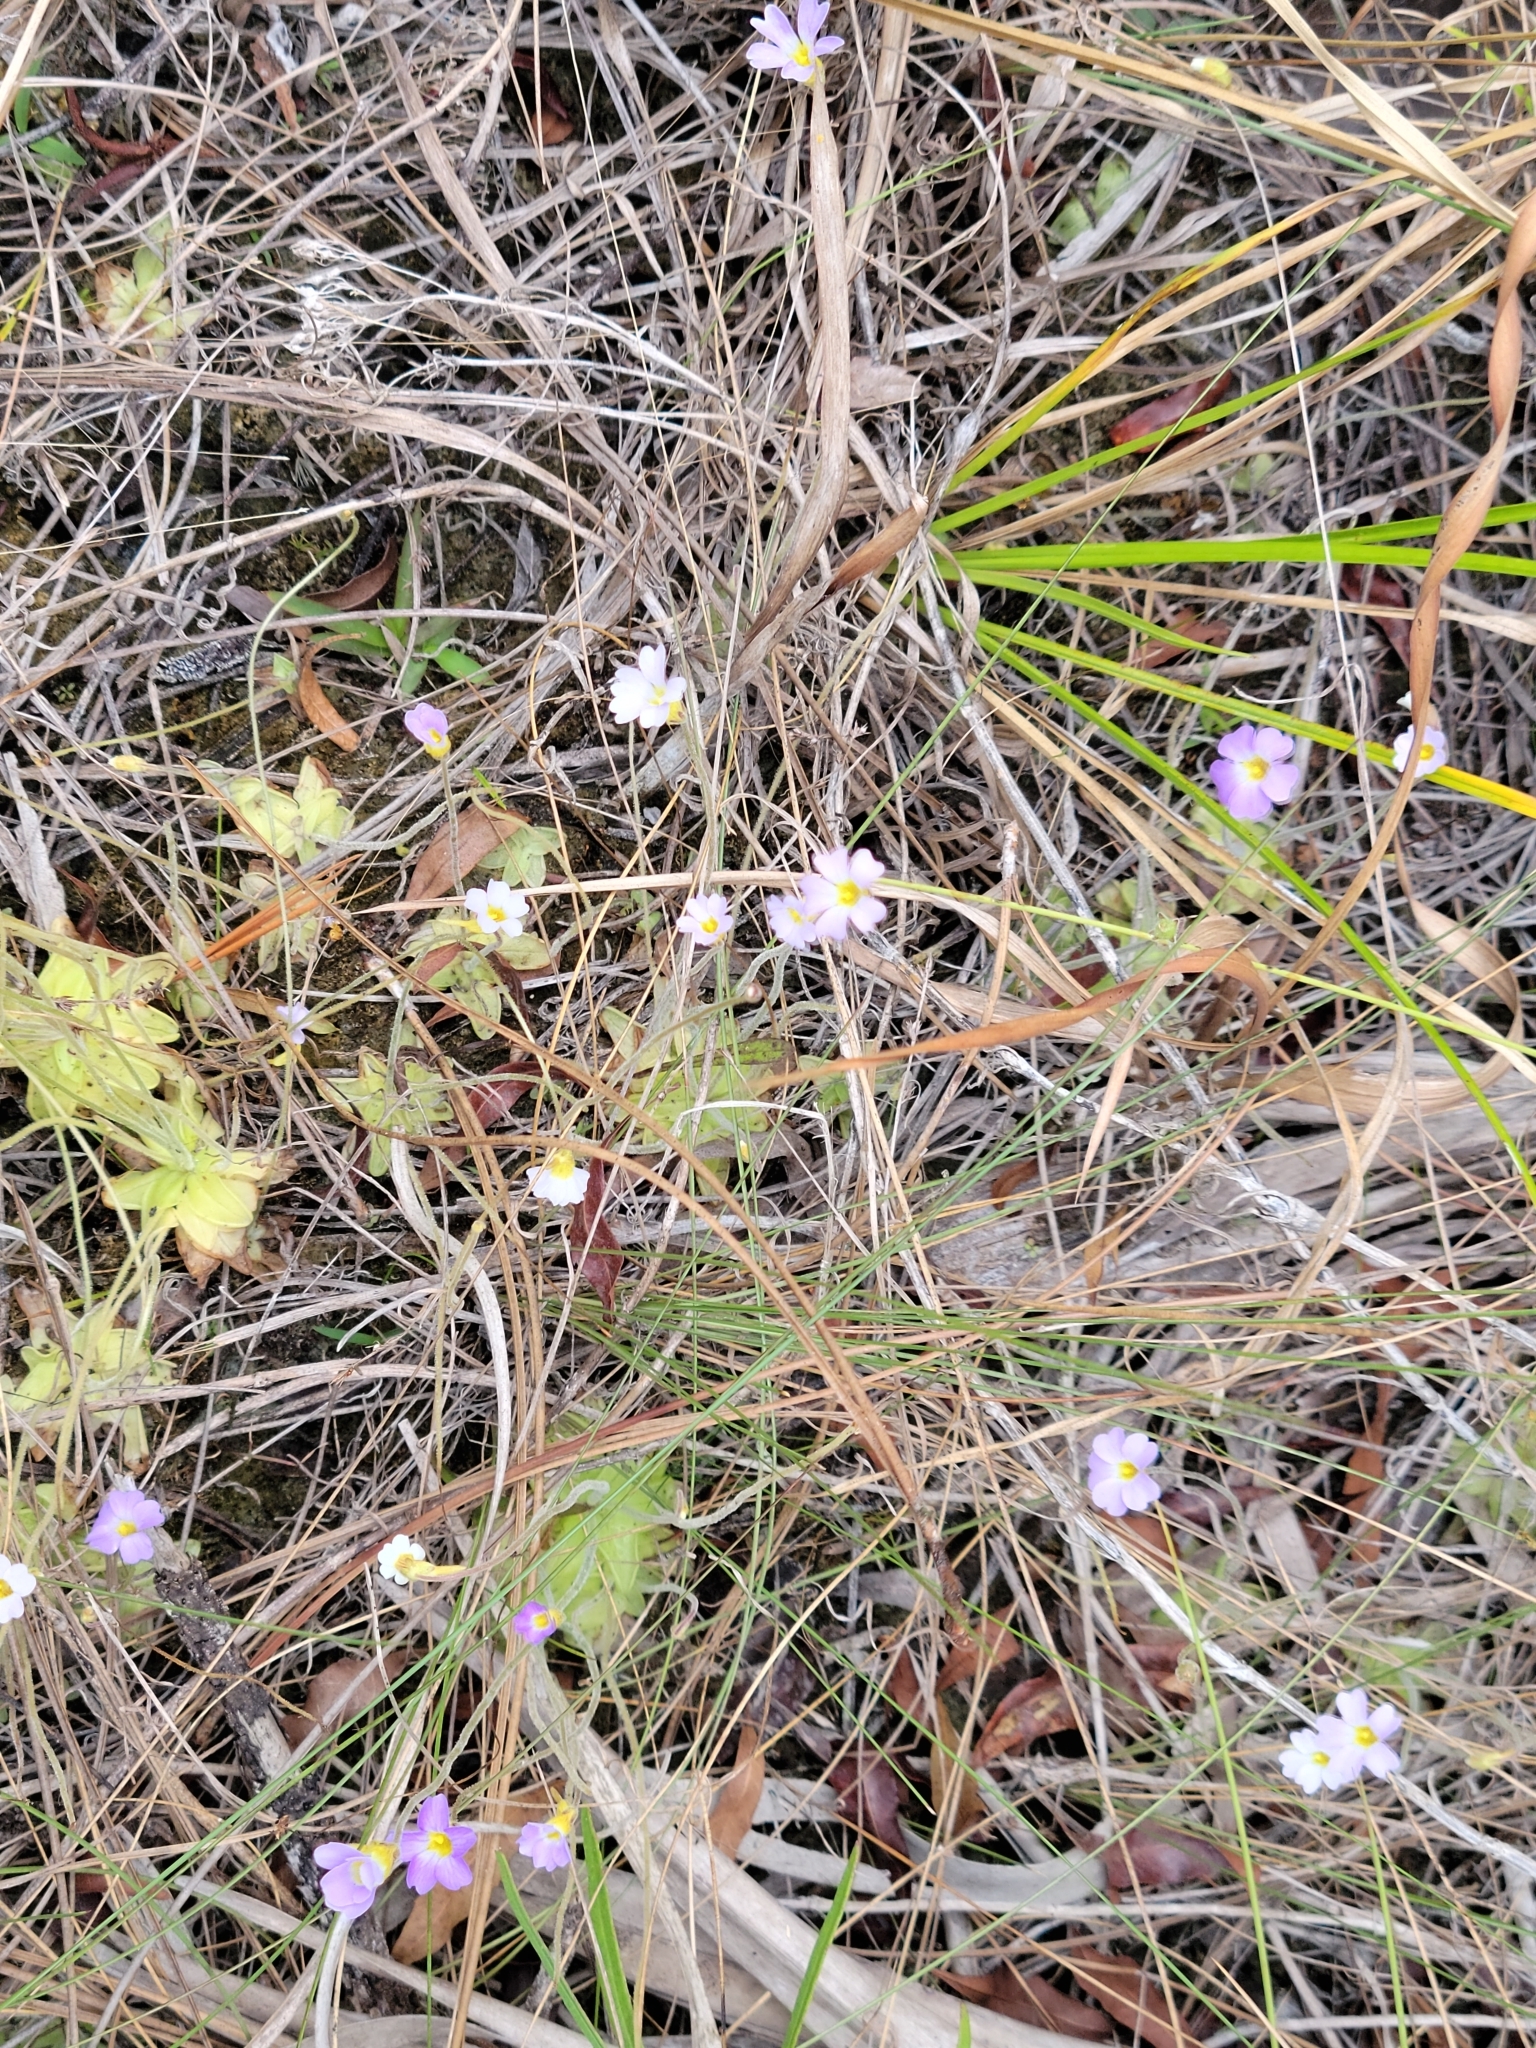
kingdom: Plantae
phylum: Tracheophyta
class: Magnoliopsida
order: Lamiales
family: Lentibulariaceae
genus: Pinguicula
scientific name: Pinguicula pumila
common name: Small butterwort
